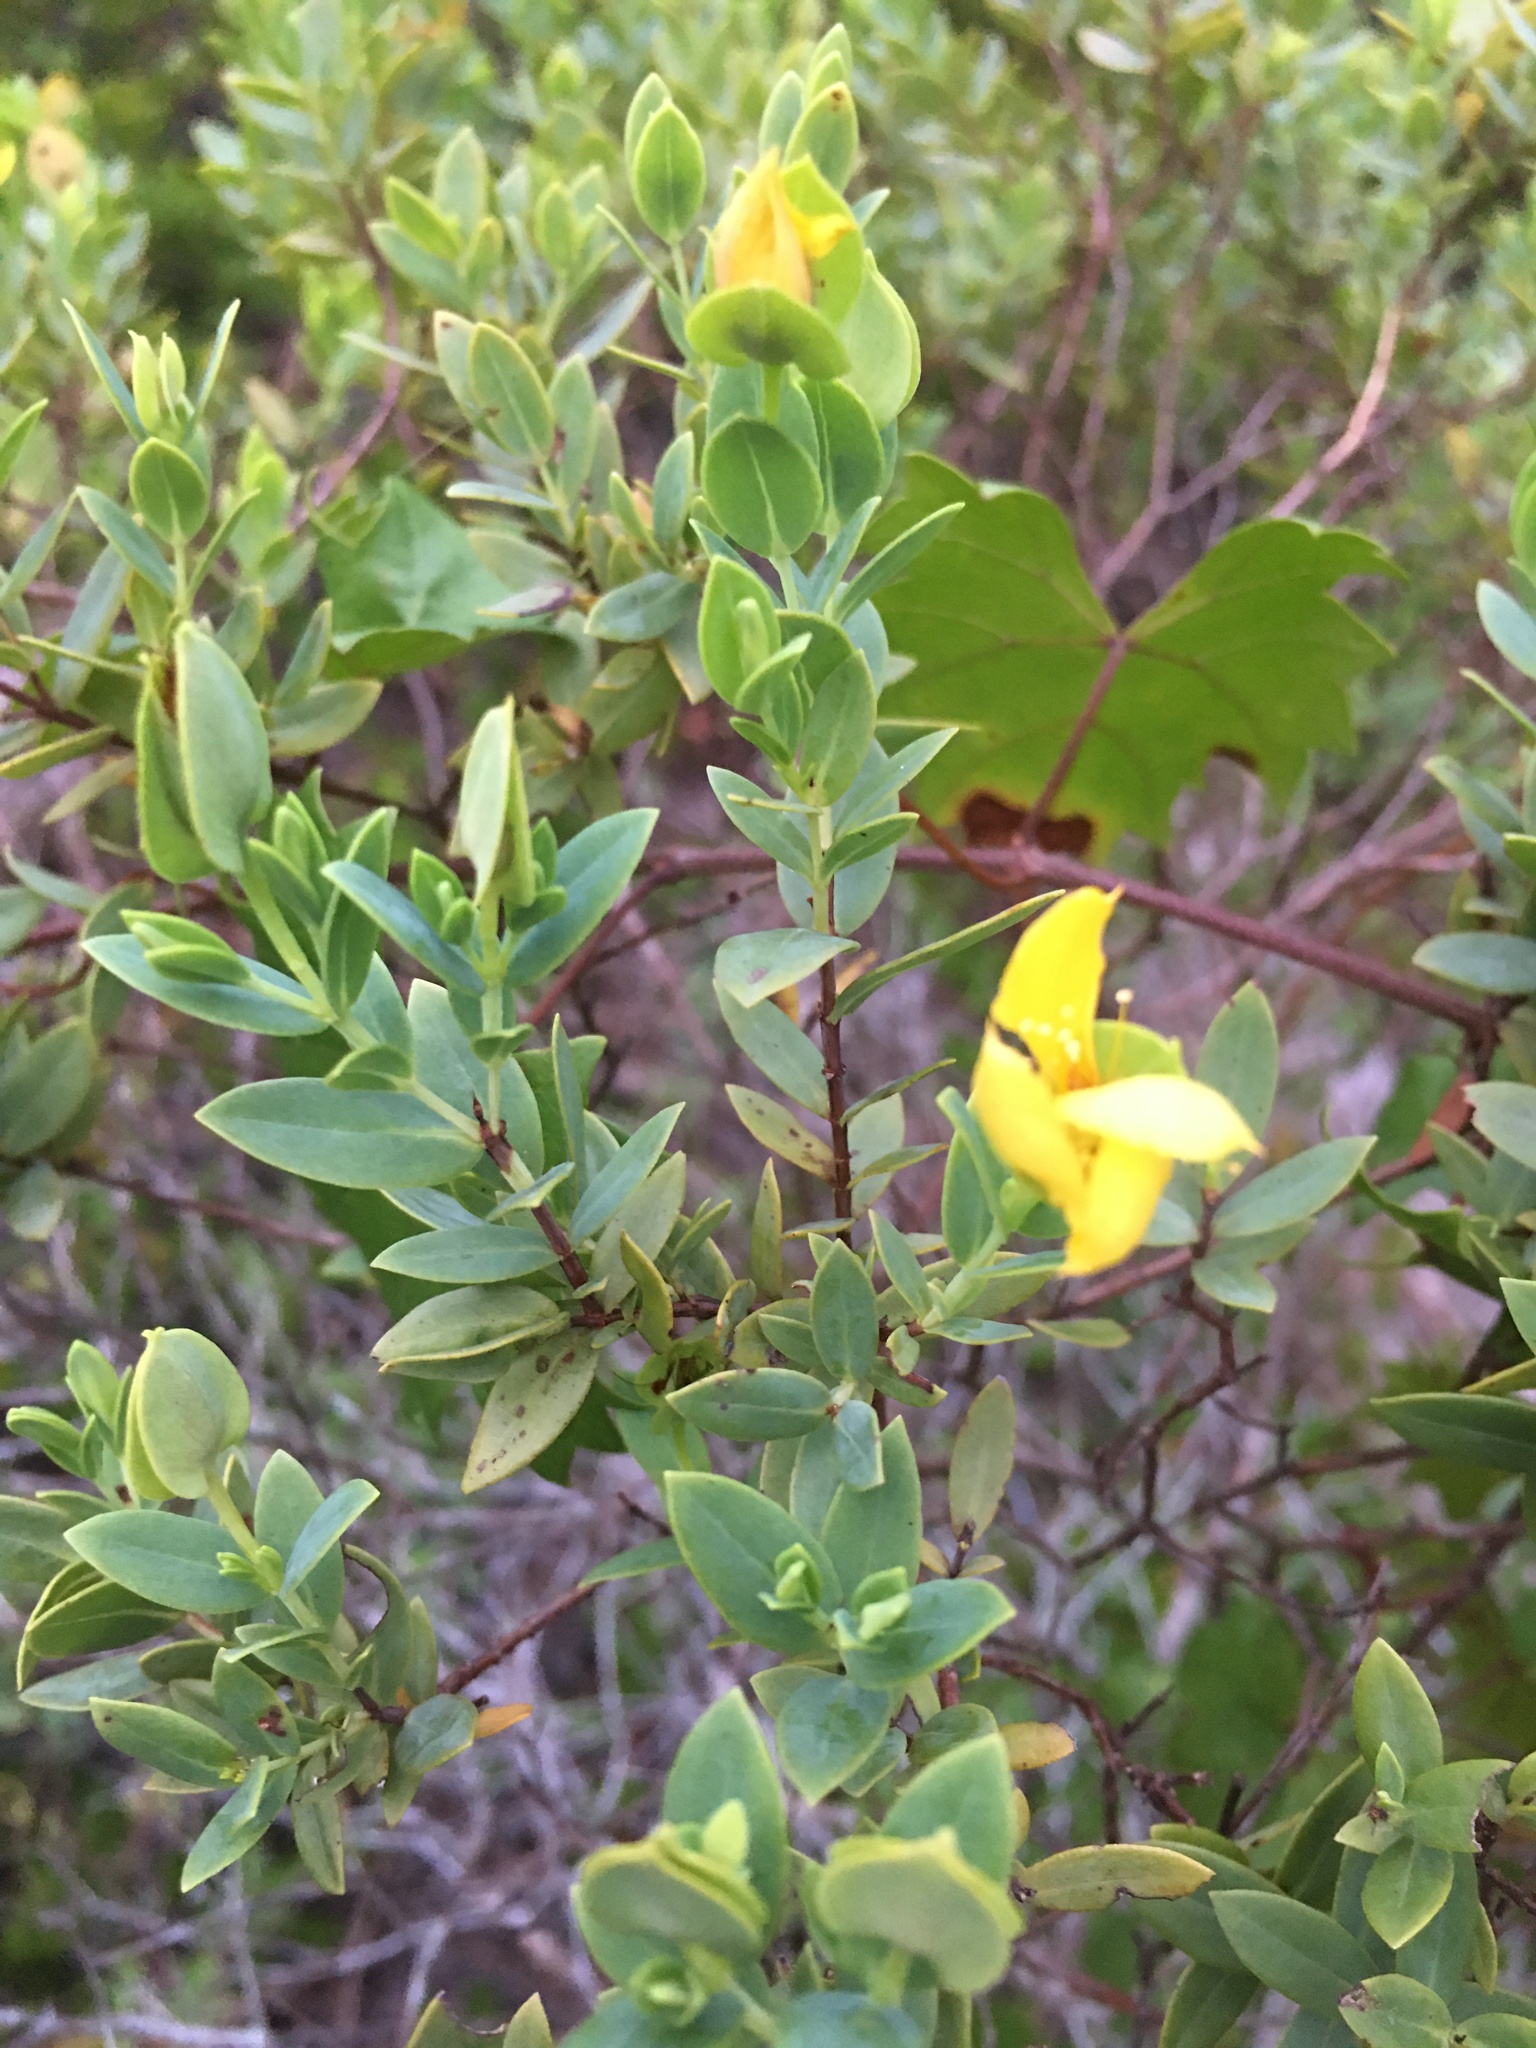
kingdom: Plantae
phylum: Tracheophyta
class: Magnoliopsida
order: Malpighiales
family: Hypericaceae
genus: Hypericum
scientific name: Hypericum edisonianum
